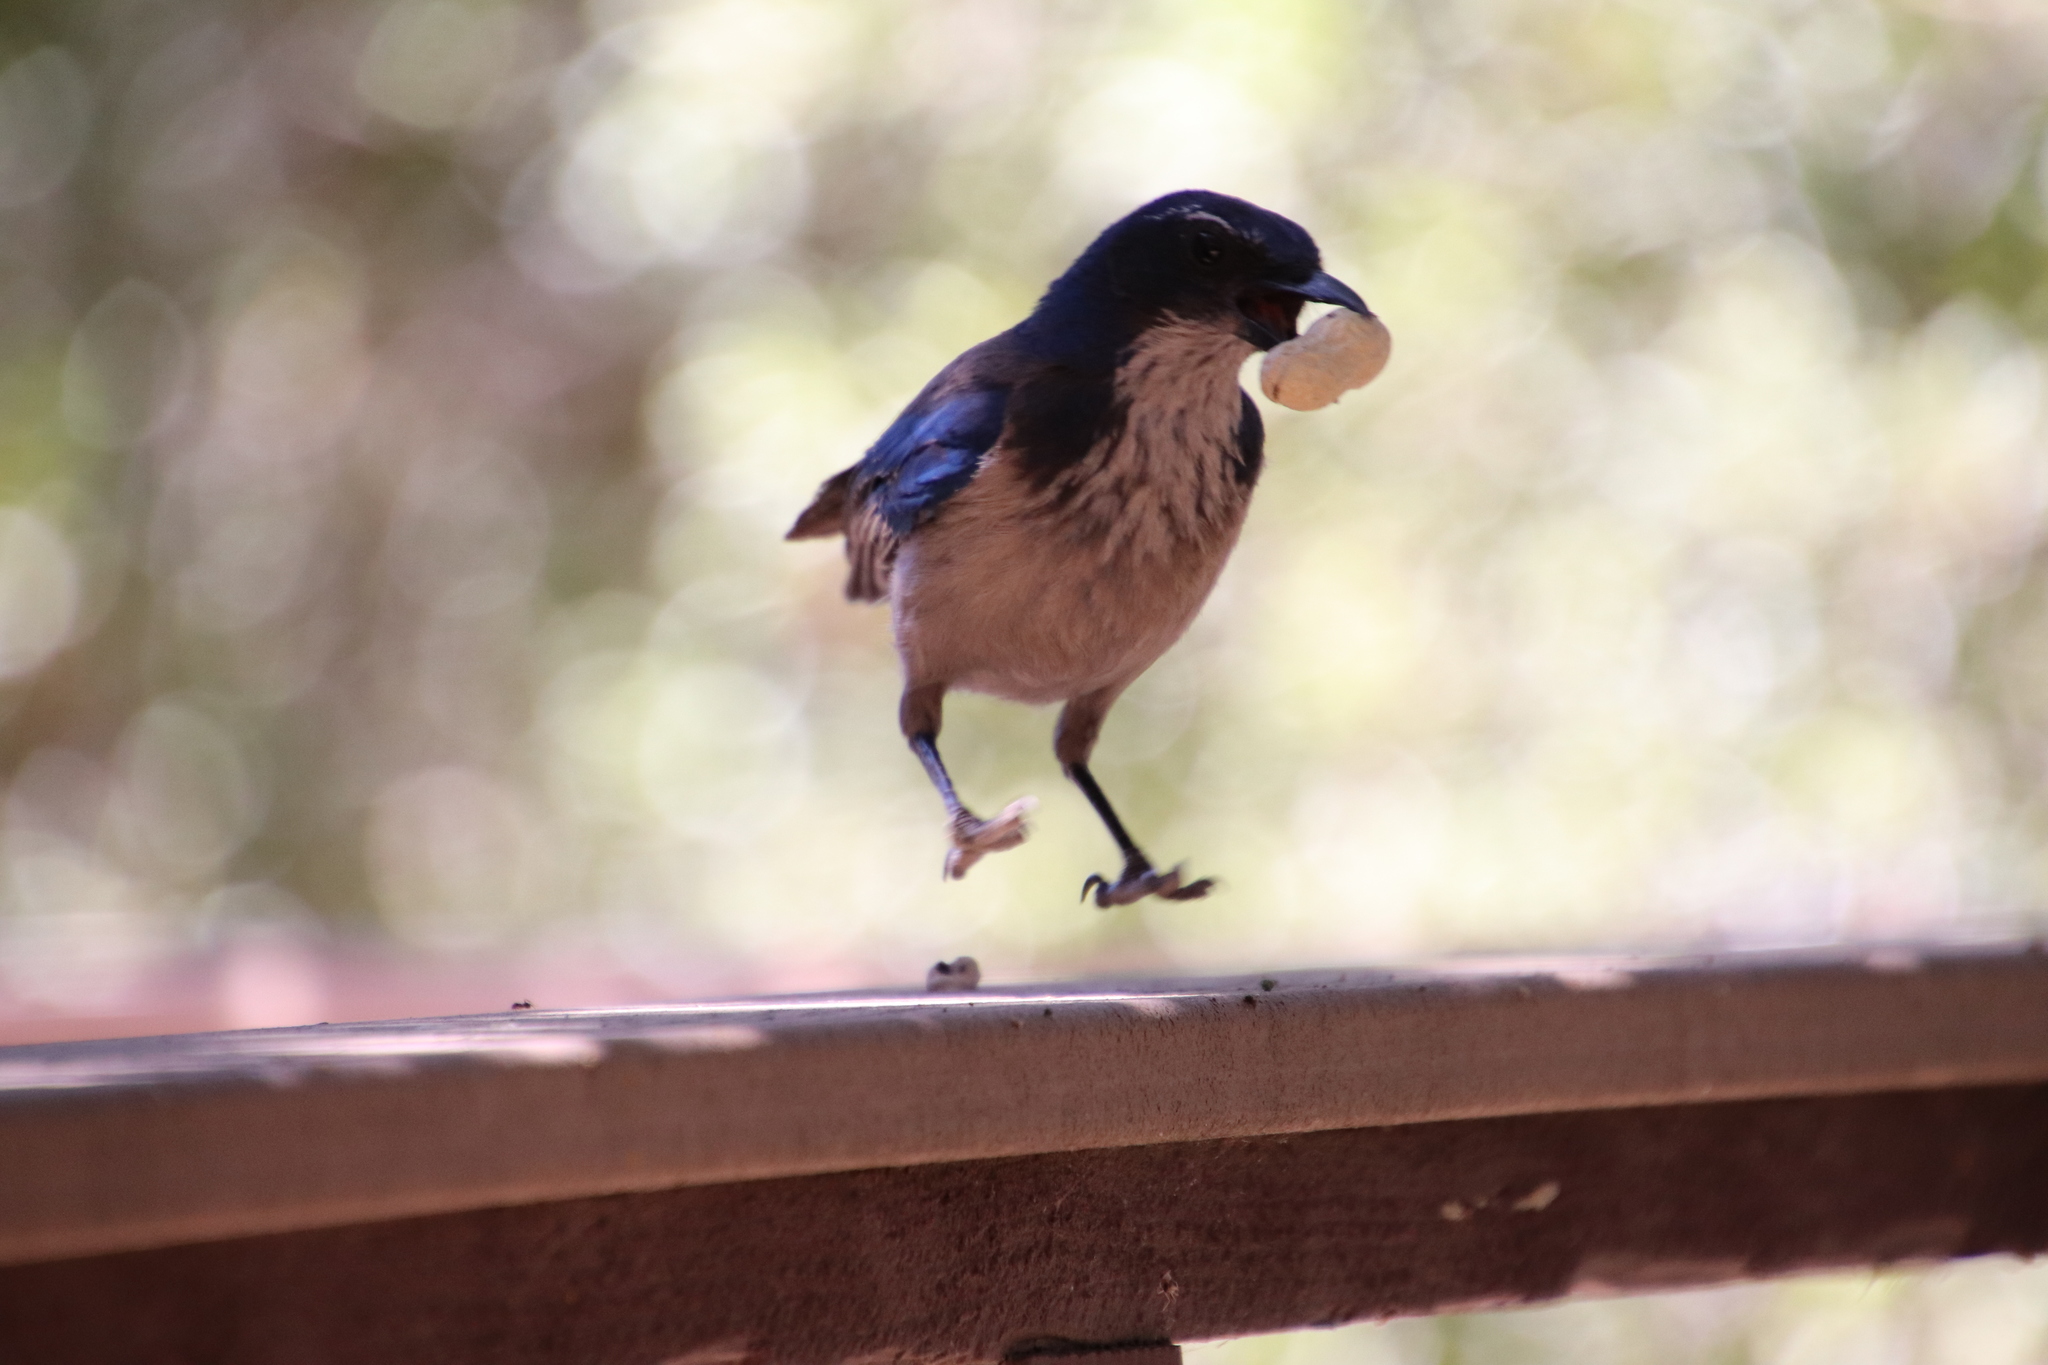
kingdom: Animalia
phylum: Chordata
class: Aves
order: Passeriformes
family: Corvidae
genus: Aphelocoma
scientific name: Aphelocoma californica
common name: California scrub-jay
